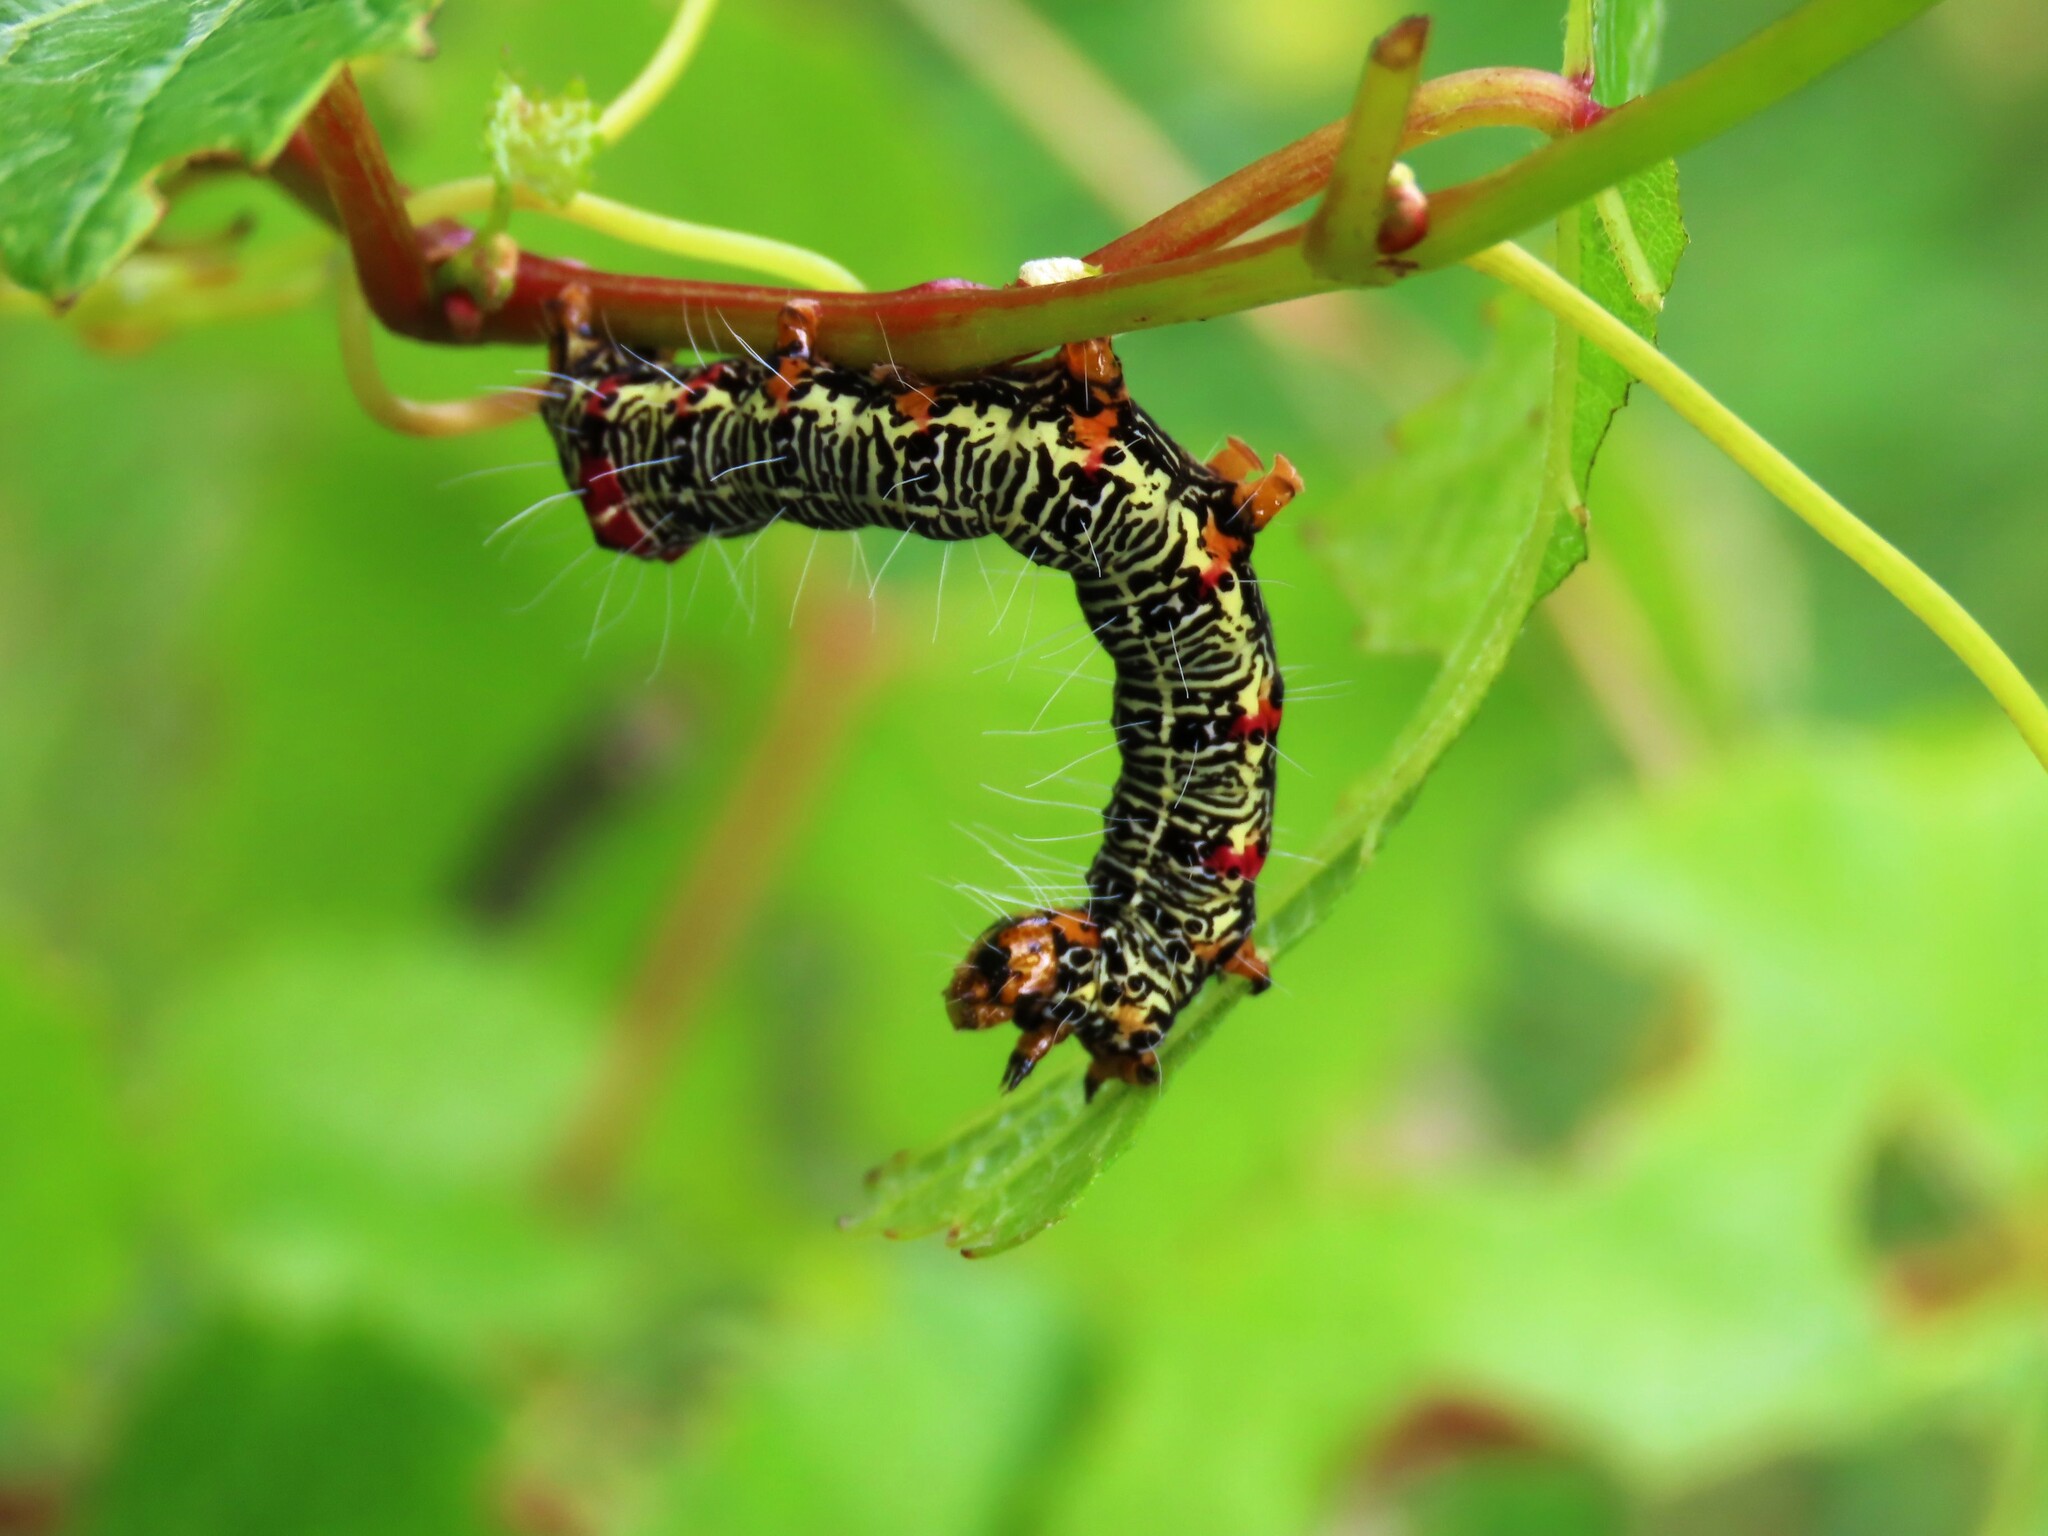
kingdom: Animalia
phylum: Arthropoda
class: Insecta
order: Lepidoptera
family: Noctuidae
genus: Phalaenoides
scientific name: Phalaenoides glycinae
